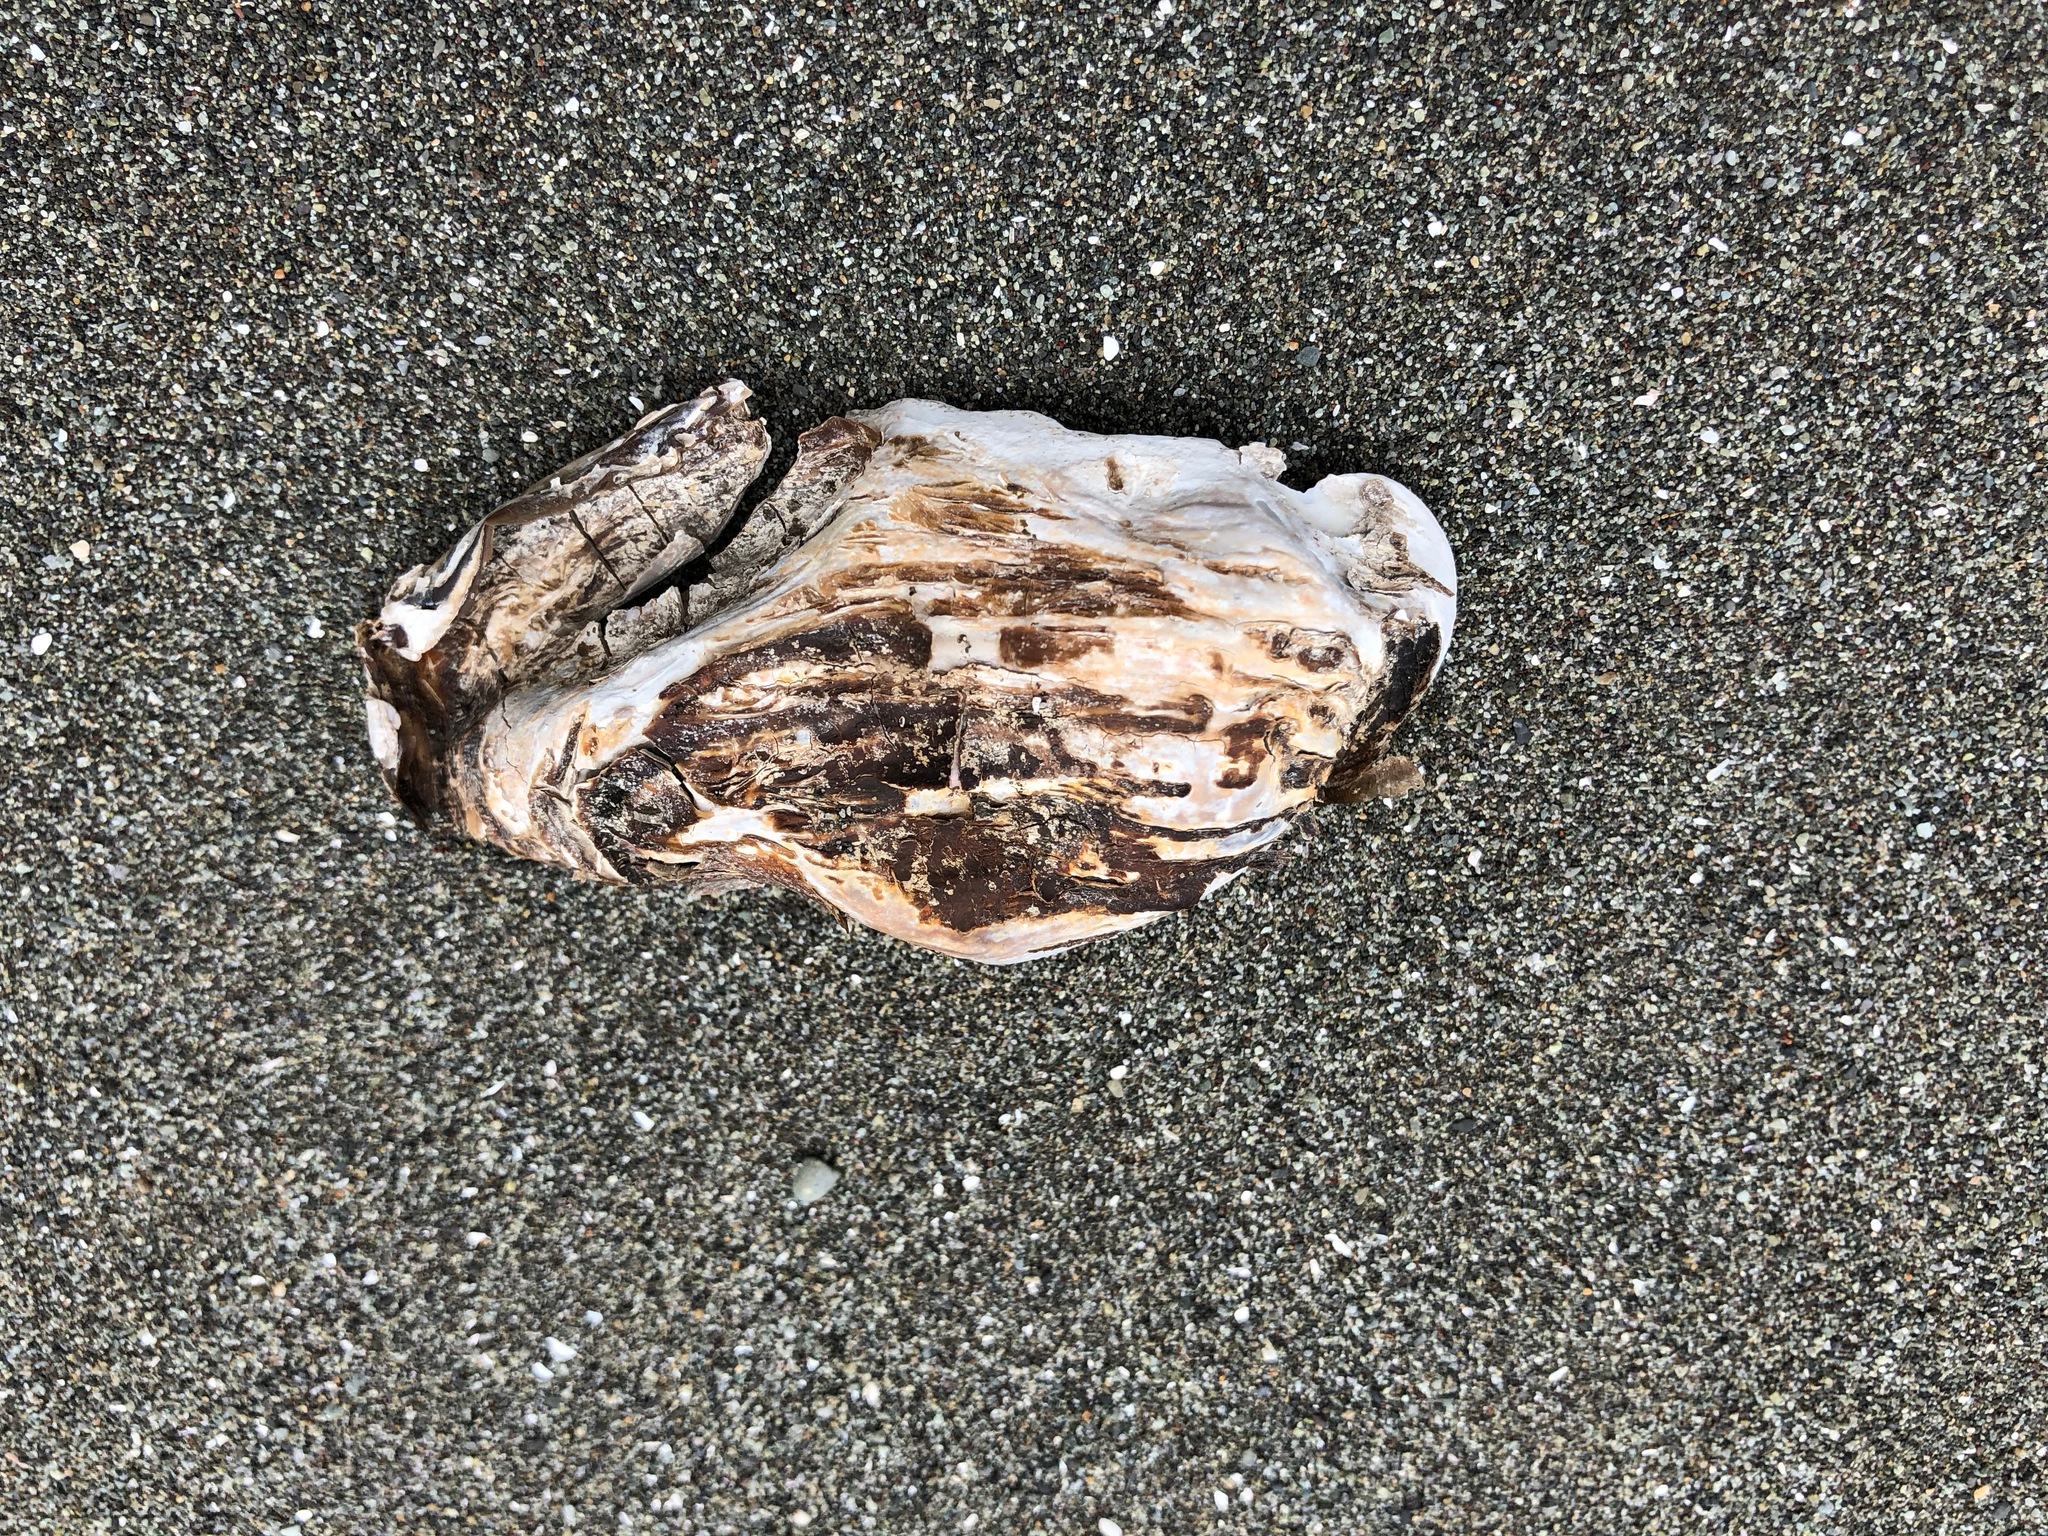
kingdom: Animalia
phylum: Mollusca
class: Bivalvia
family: Lyonsiidae
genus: Entodesma
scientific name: Entodesma navicula
